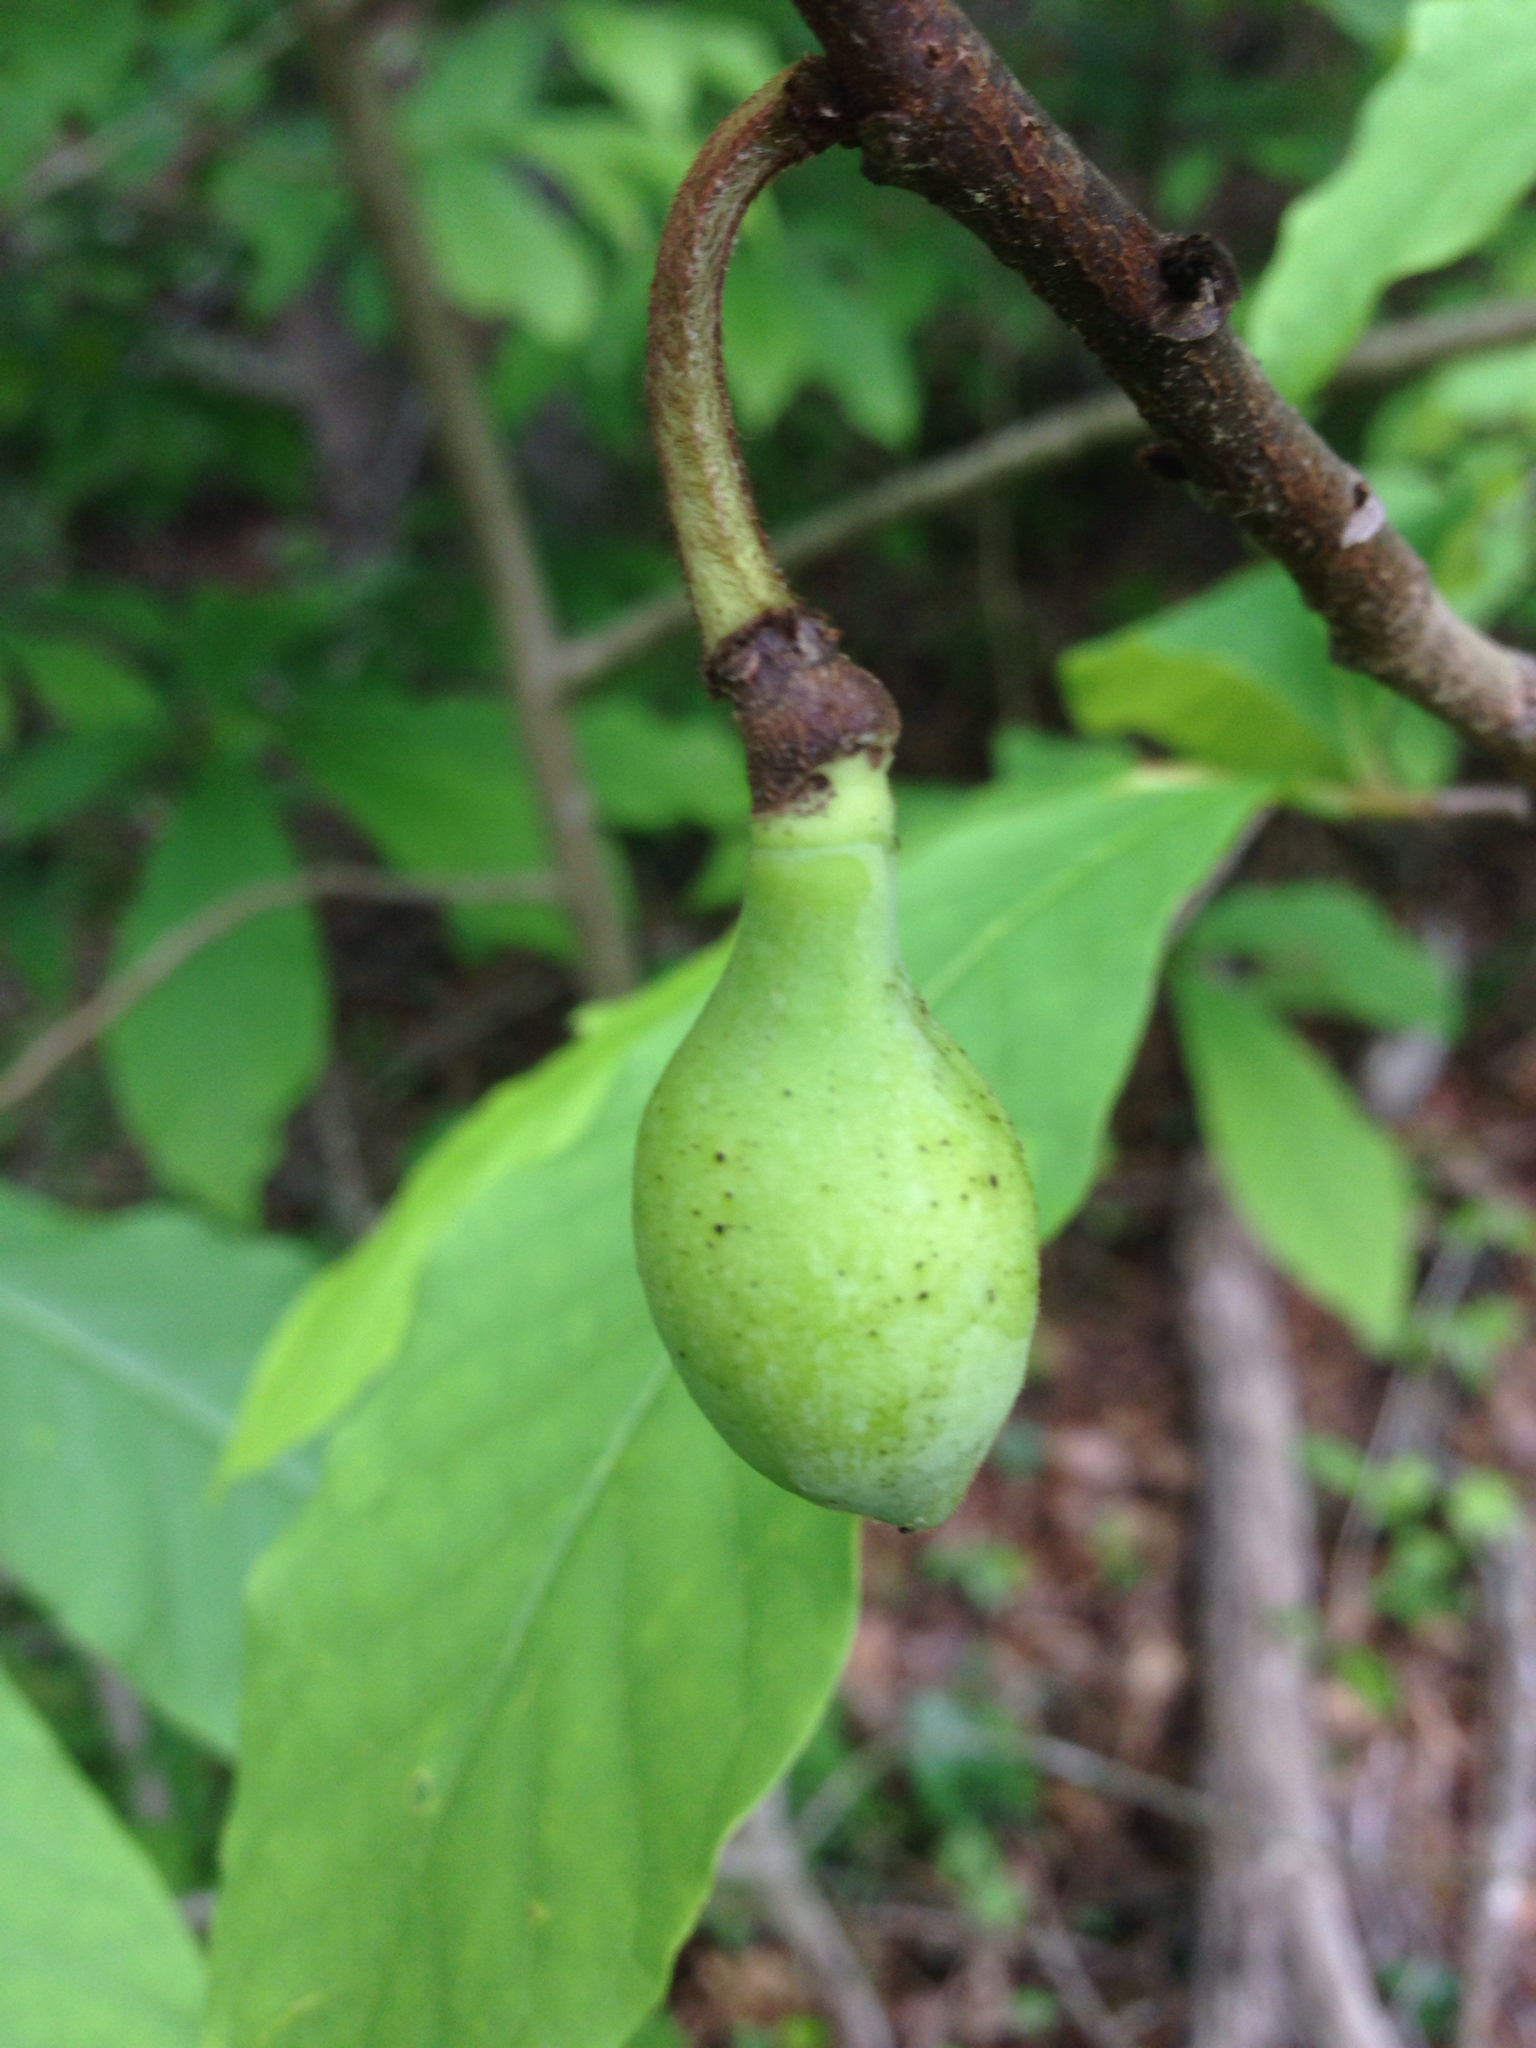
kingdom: Plantae
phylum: Tracheophyta
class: Magnoliopsida
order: Magnoliales
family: Annonaceae
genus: Asimina
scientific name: Asimina triloba
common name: Dog-banana
